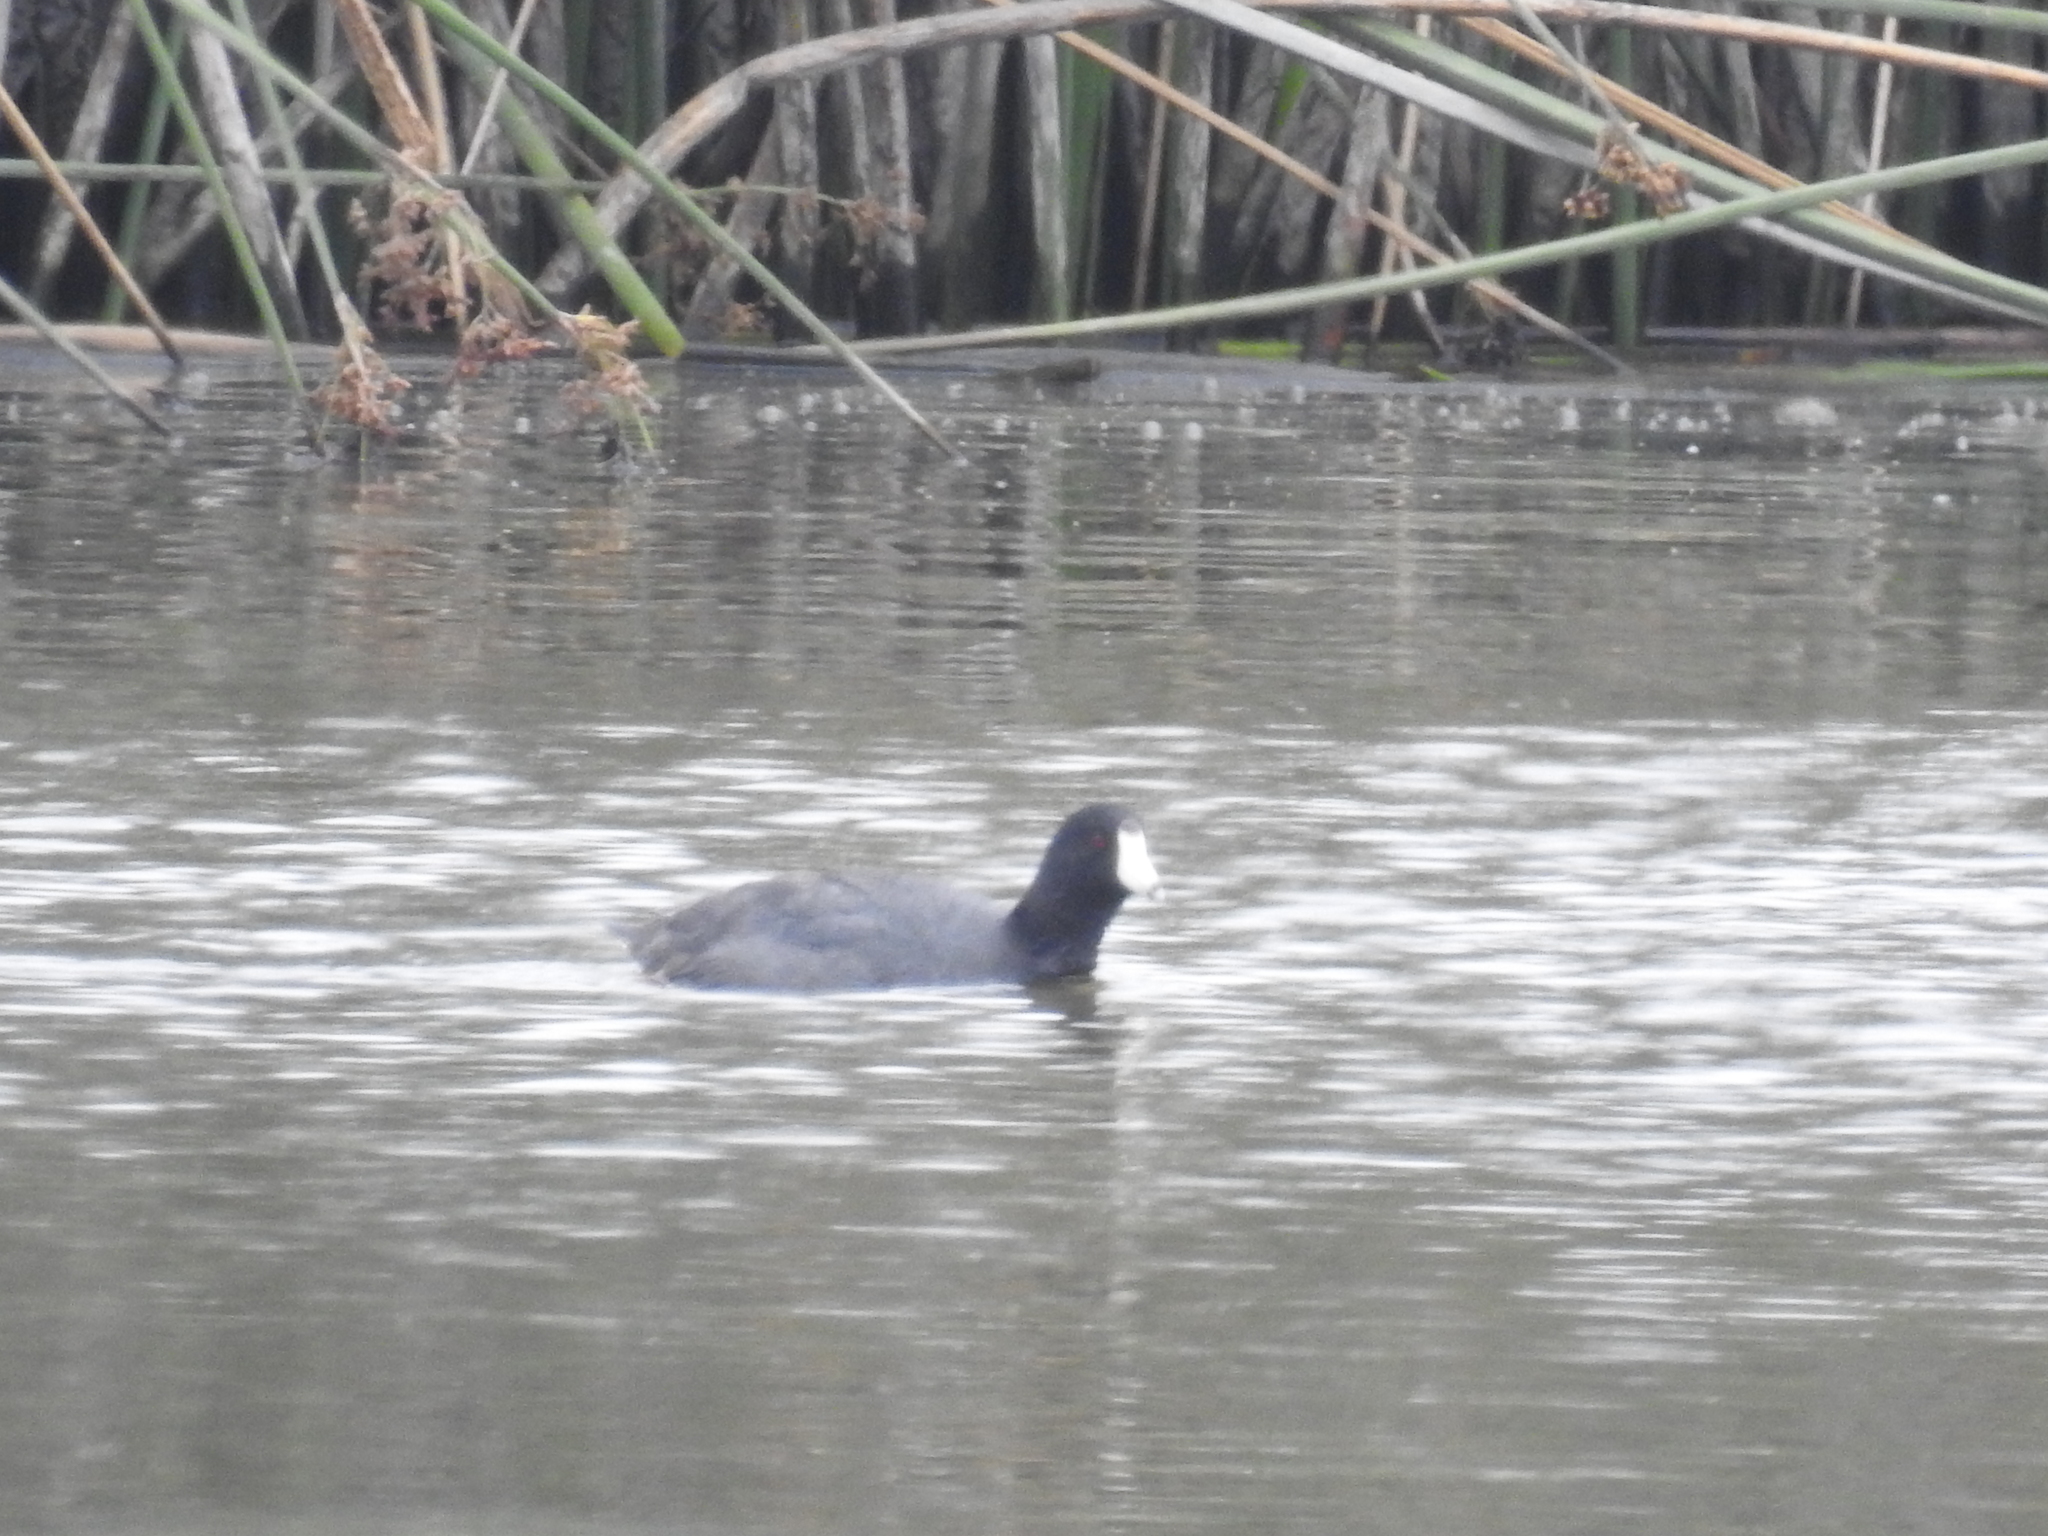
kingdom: Animalia
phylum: Chordata
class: Aves
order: Gruiformes
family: Rallidae
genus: Fulica
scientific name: Fulica americana
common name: American coot
